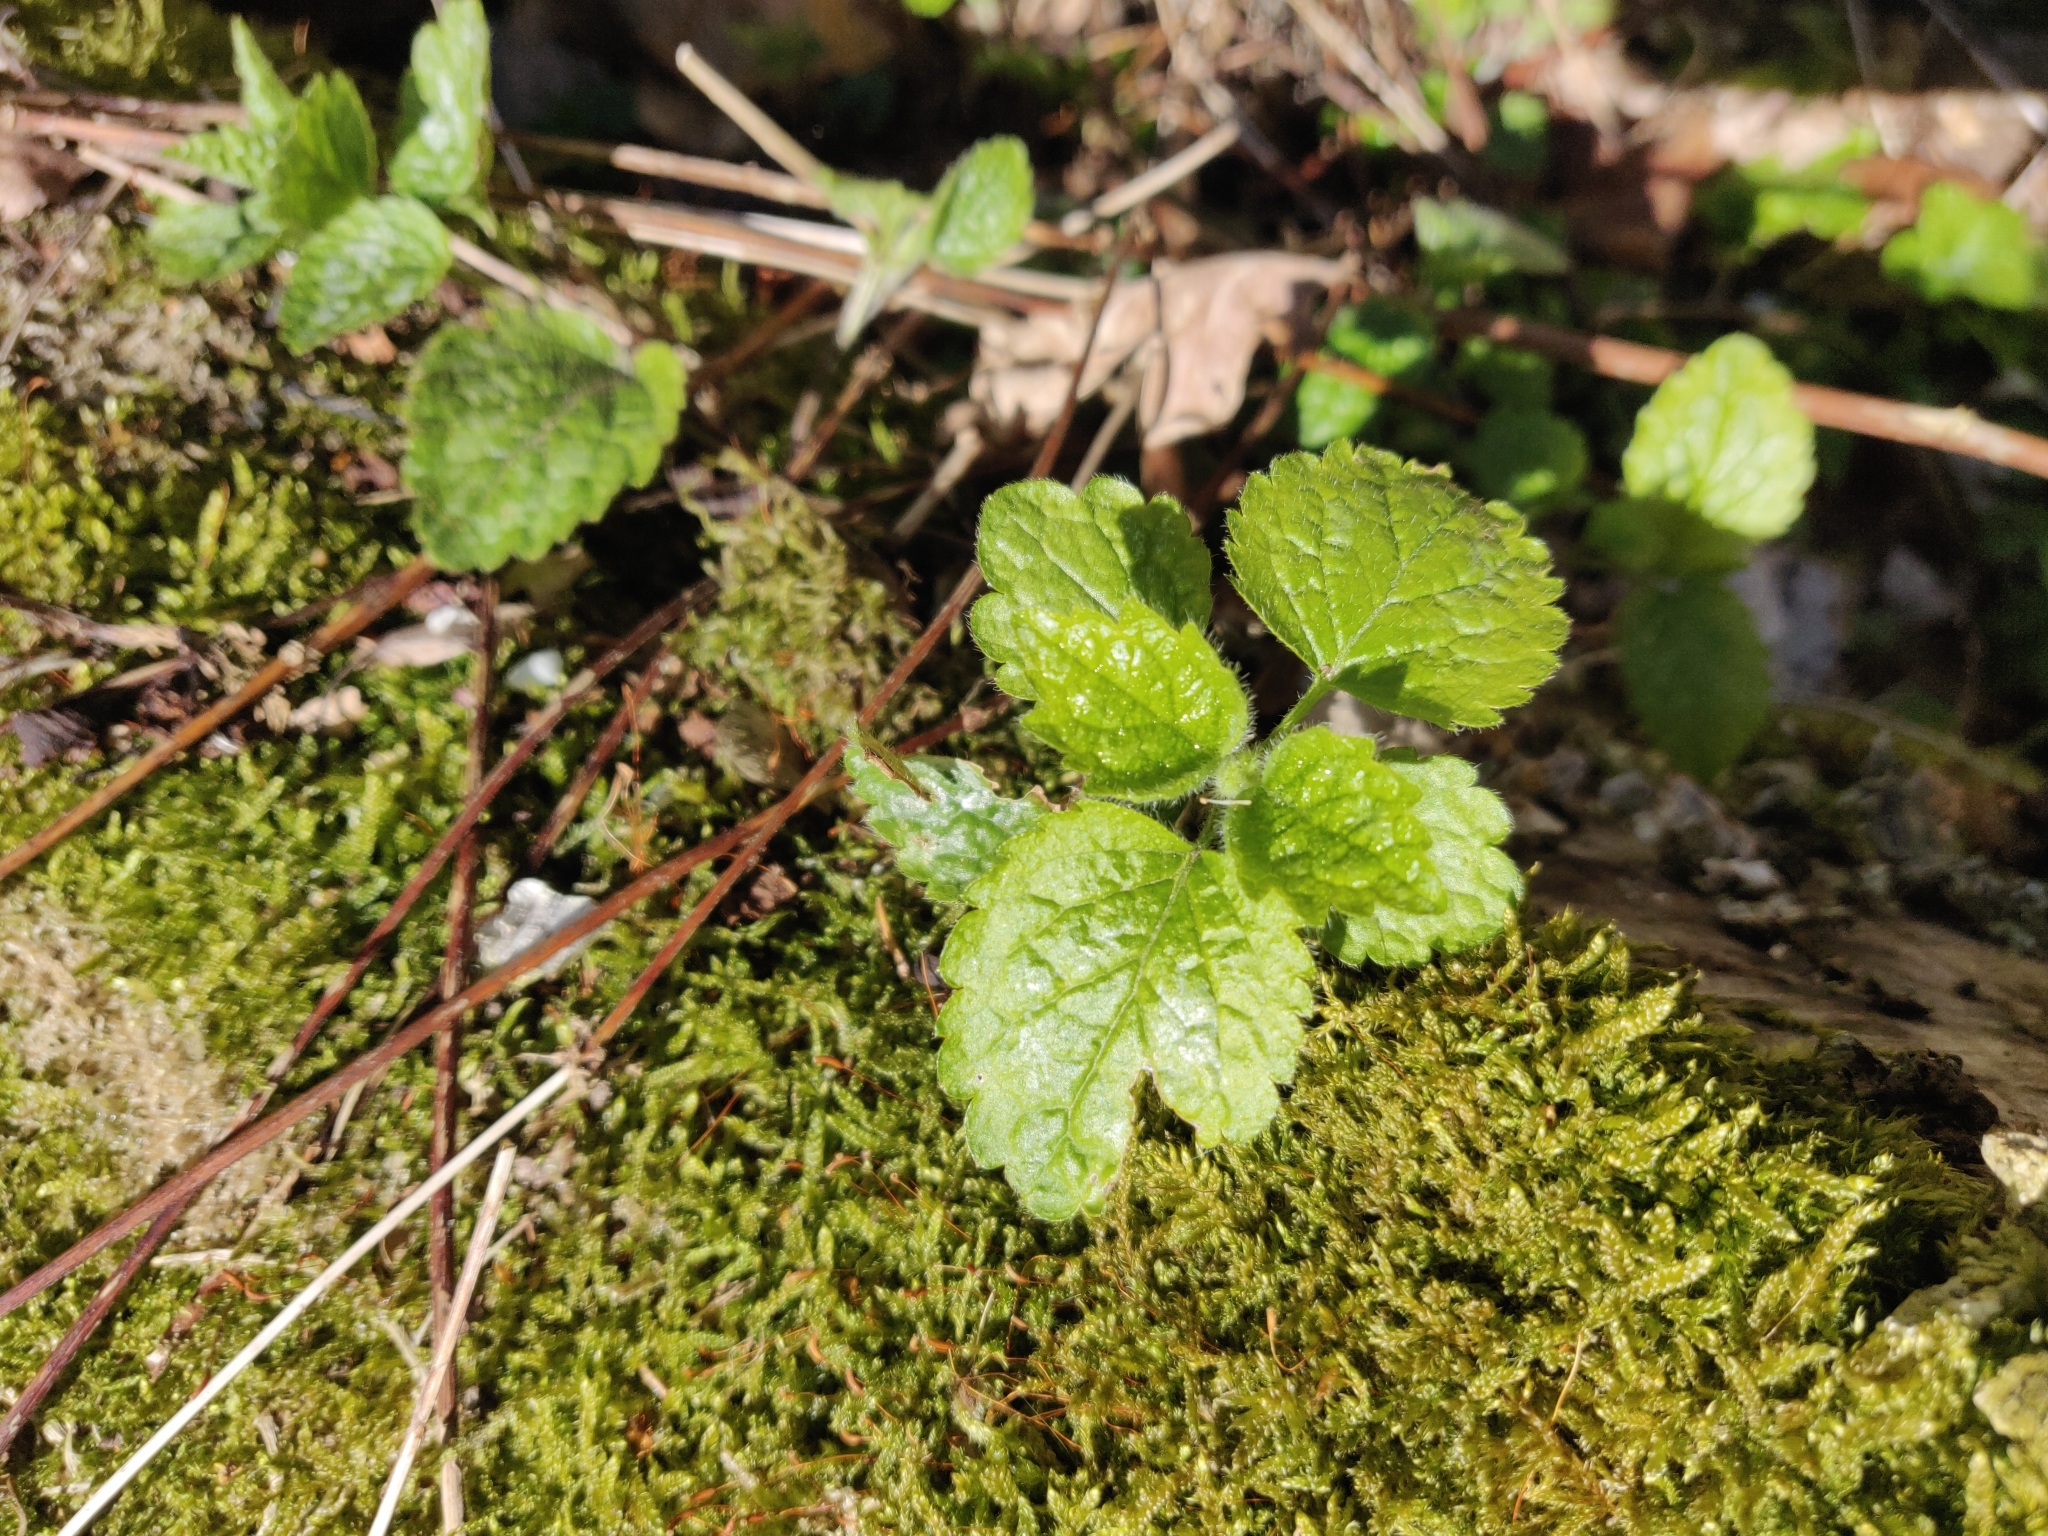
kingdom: Plantae
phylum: Tracheophyta
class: Magnoliopsida
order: Lamiales
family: Lamiaceae
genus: Lamium
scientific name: Lamium galeobdolon
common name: Yellow archangel
